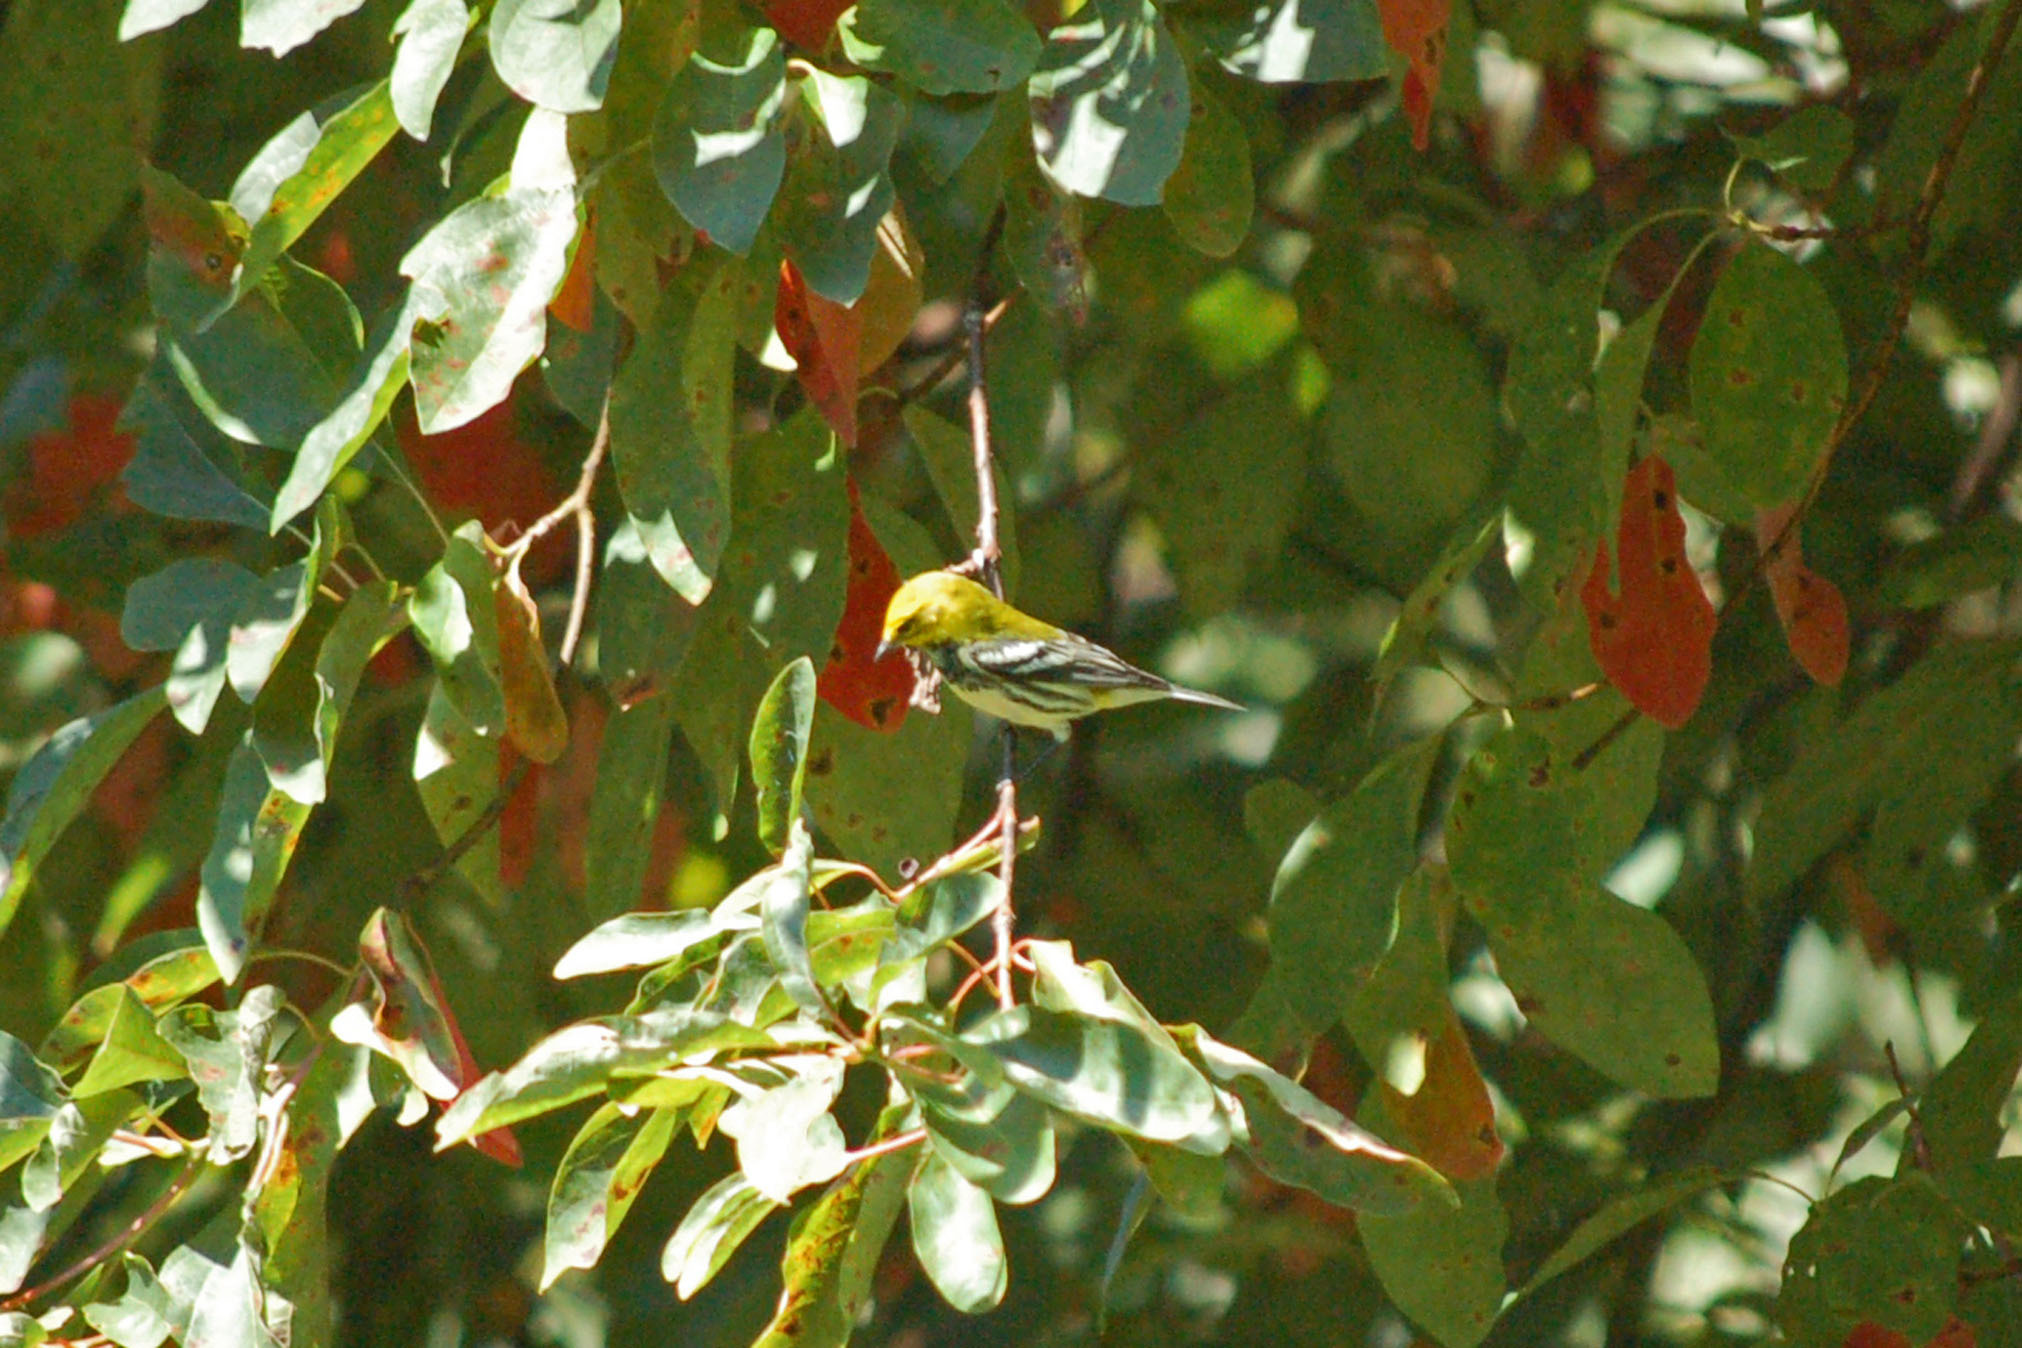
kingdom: Animalia
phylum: Chordata
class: Aves
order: Passeriformes
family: Parulidae
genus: Setophaga
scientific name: Setophaga virens
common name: Black-throated green warbler
